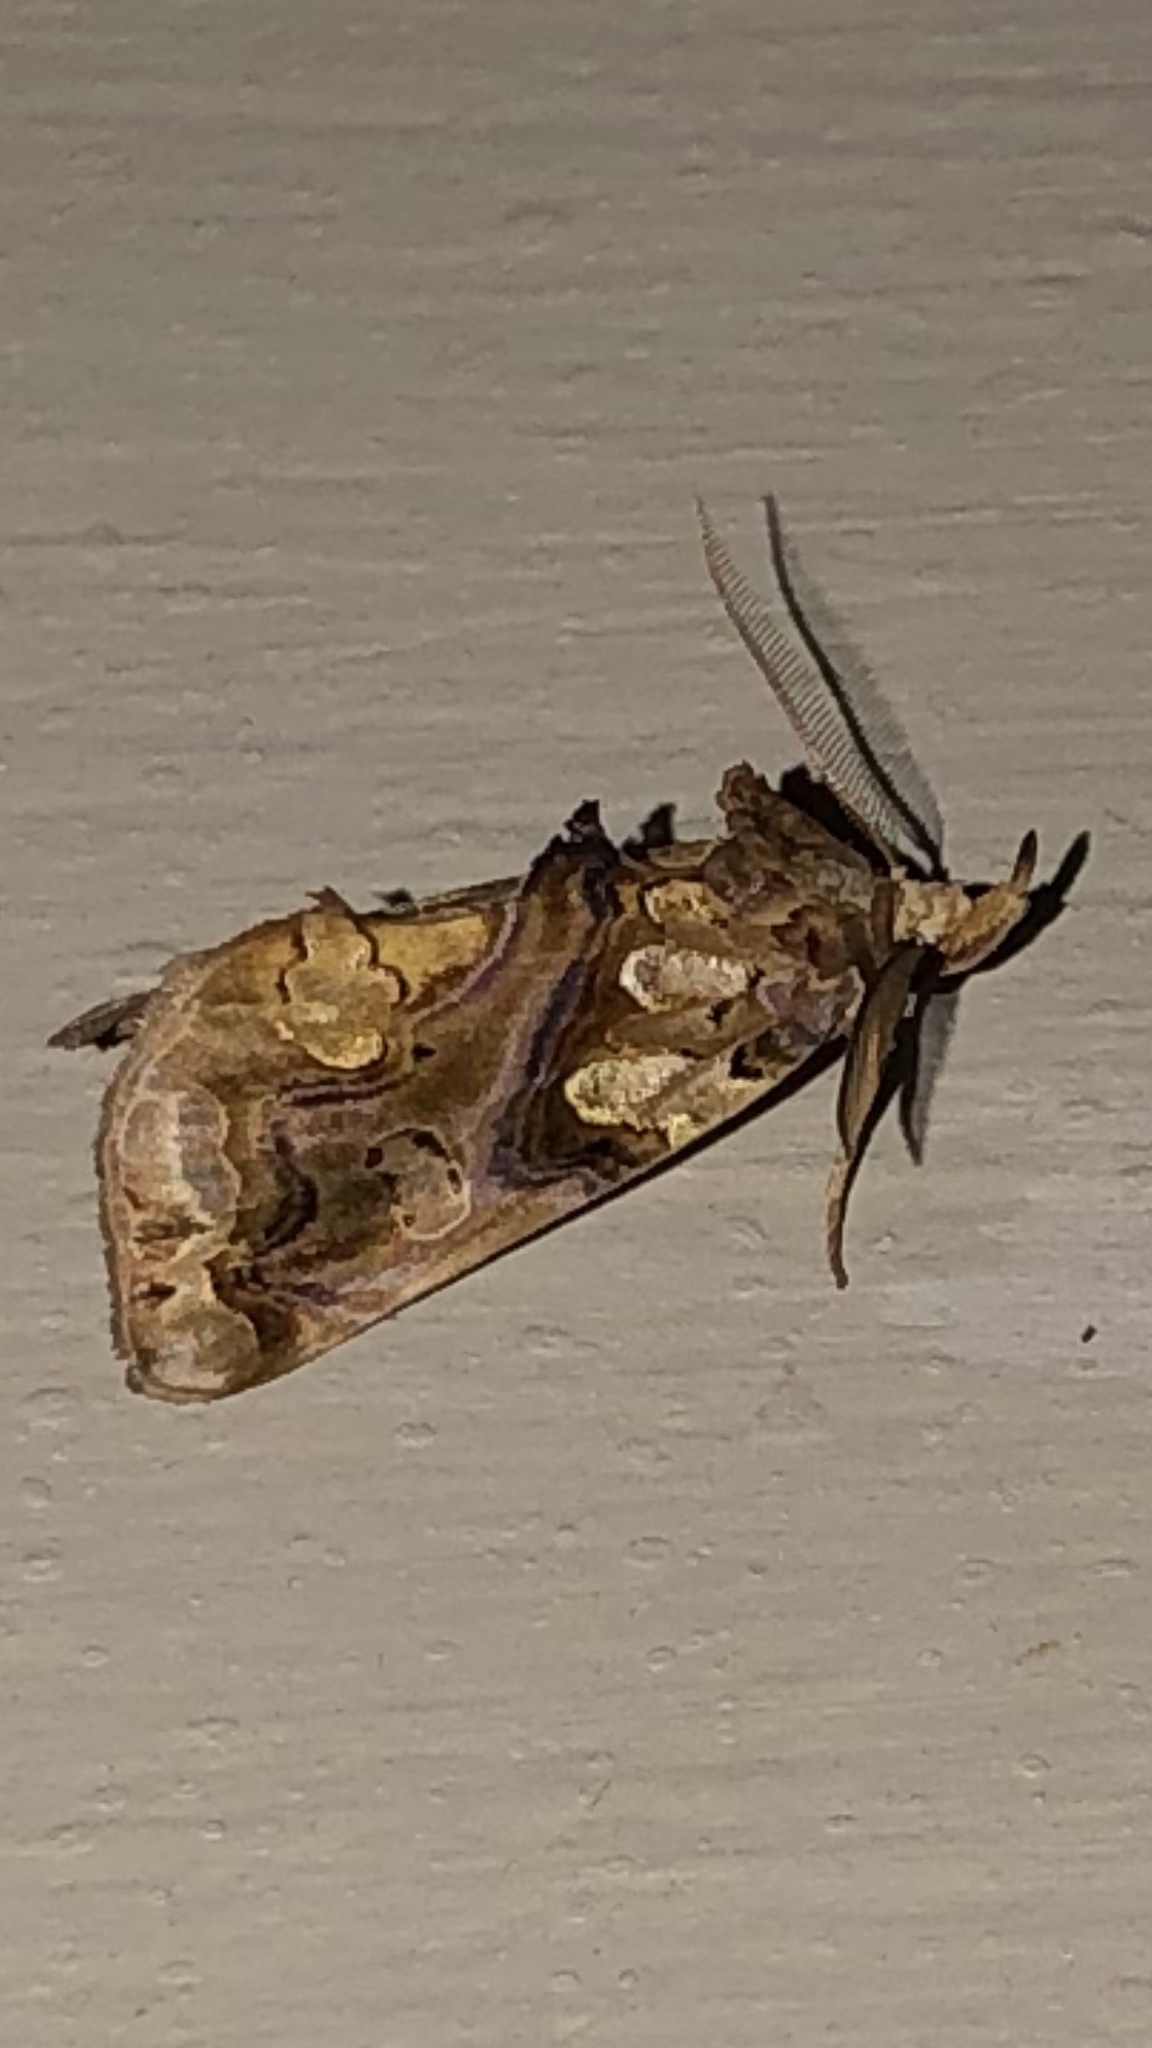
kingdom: Animalia
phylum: Arthropoda
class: Insecta
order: Lepidoptera
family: Erebidae
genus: Plusiodonta
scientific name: Plusiodonta compressipalpis
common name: Moonseed moth
